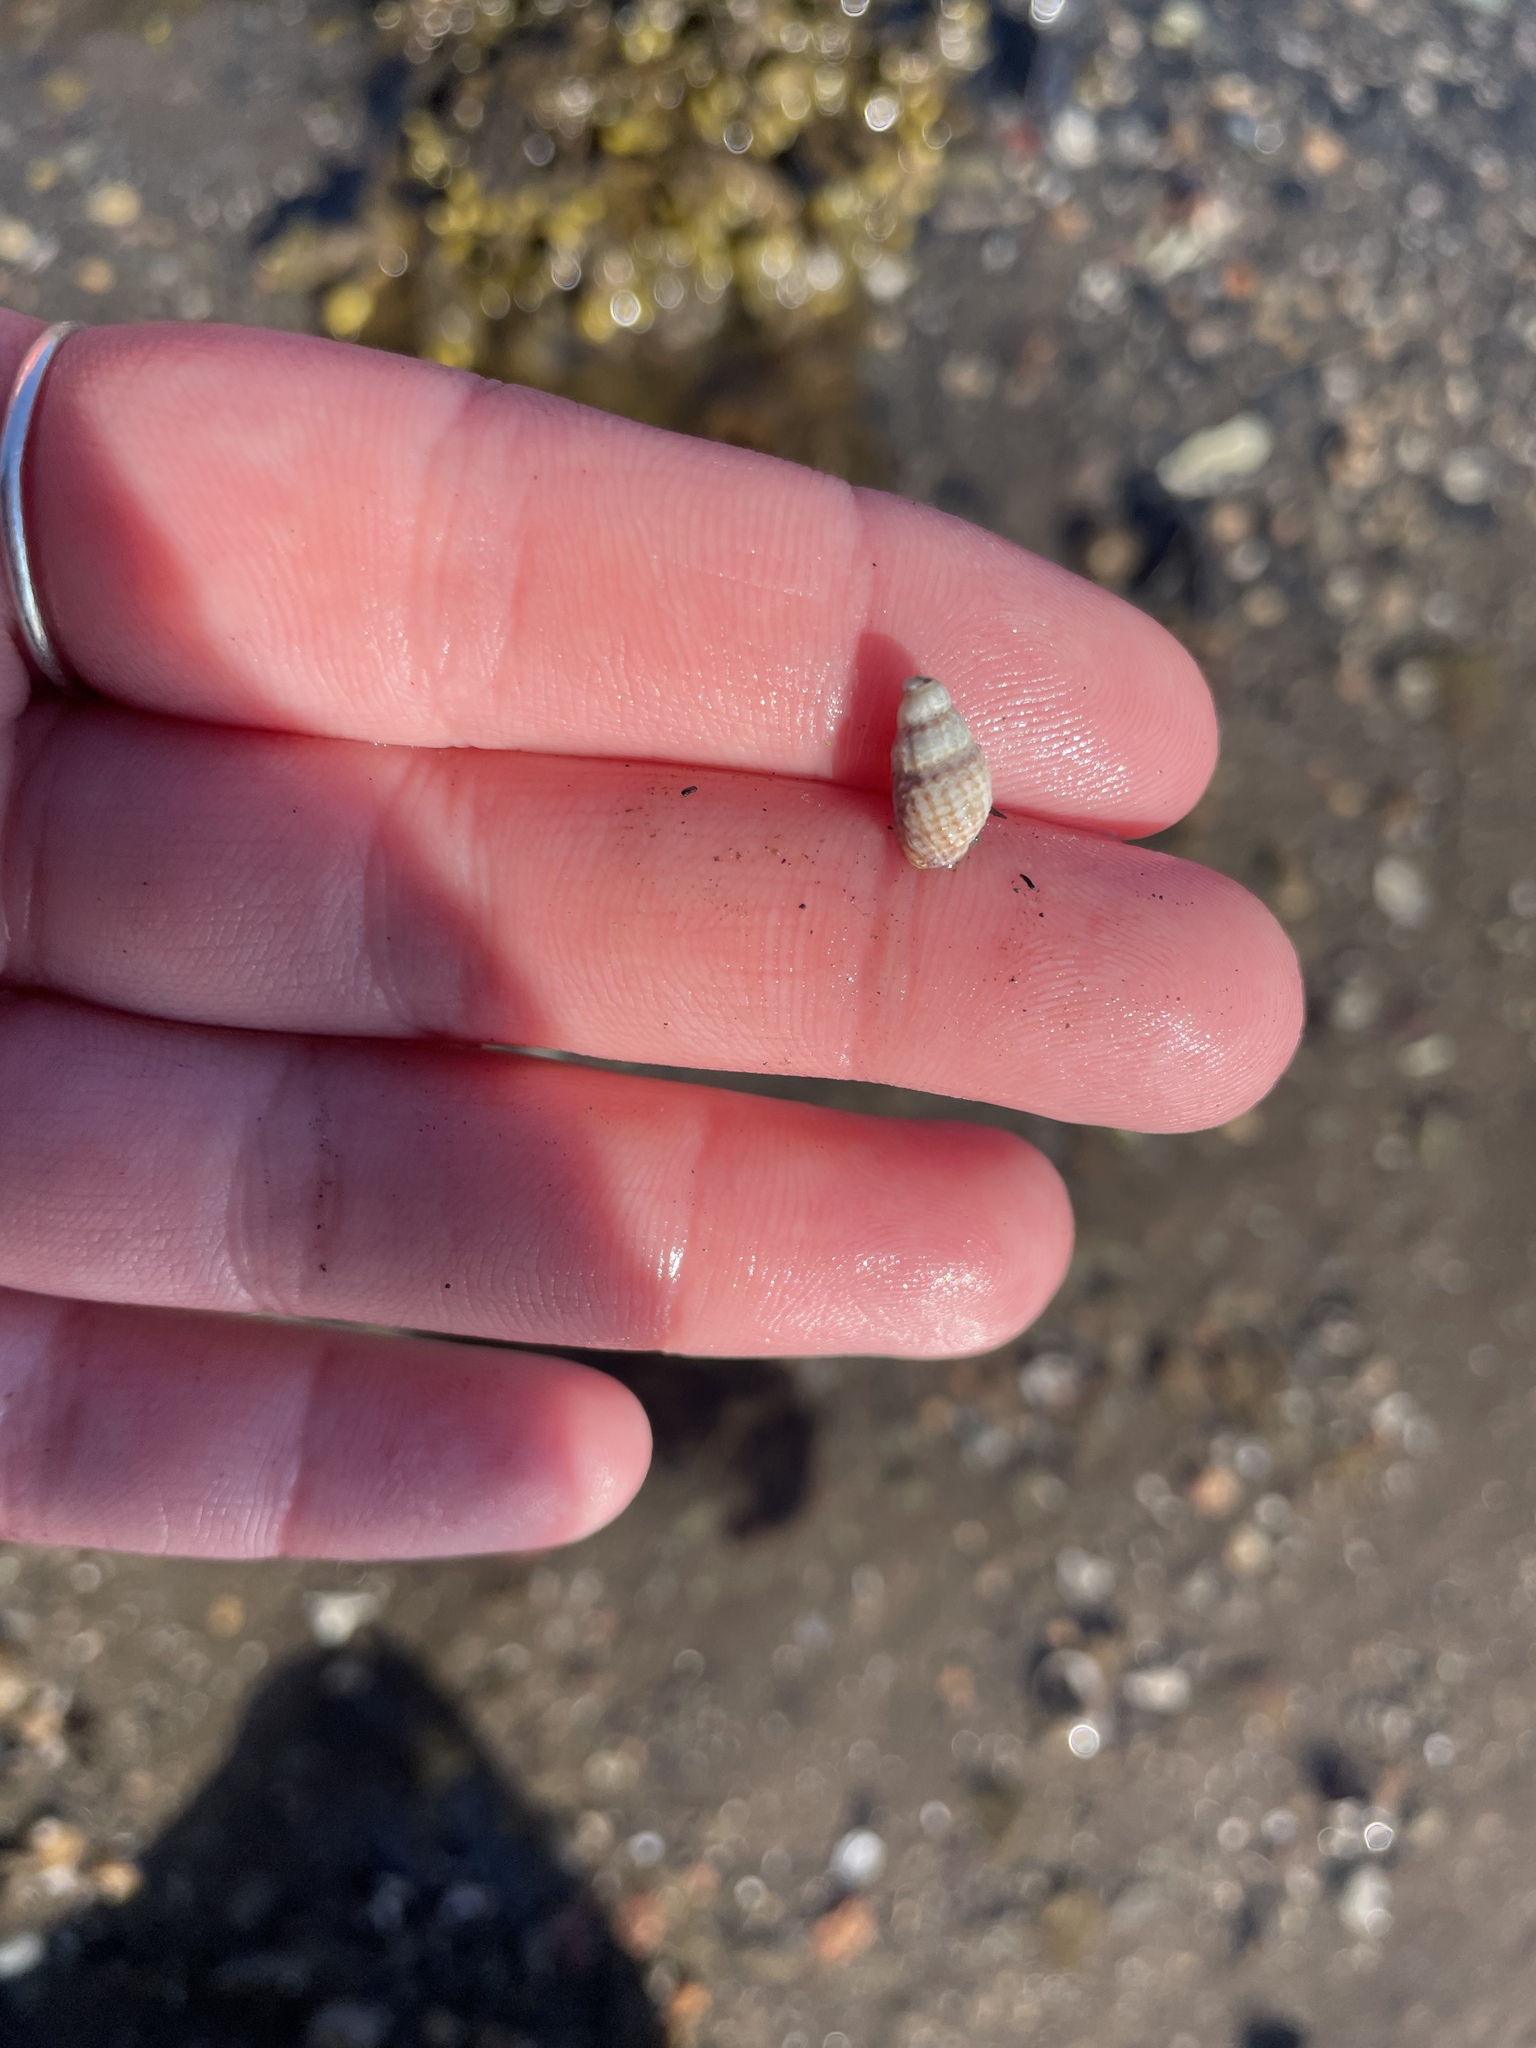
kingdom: Animalia
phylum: Mollusca
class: Gastropoda
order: Neogastropoda
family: Nassariidae
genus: Ilyanassa
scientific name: Ilyanassa trivittata
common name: Three-line mudsnail
